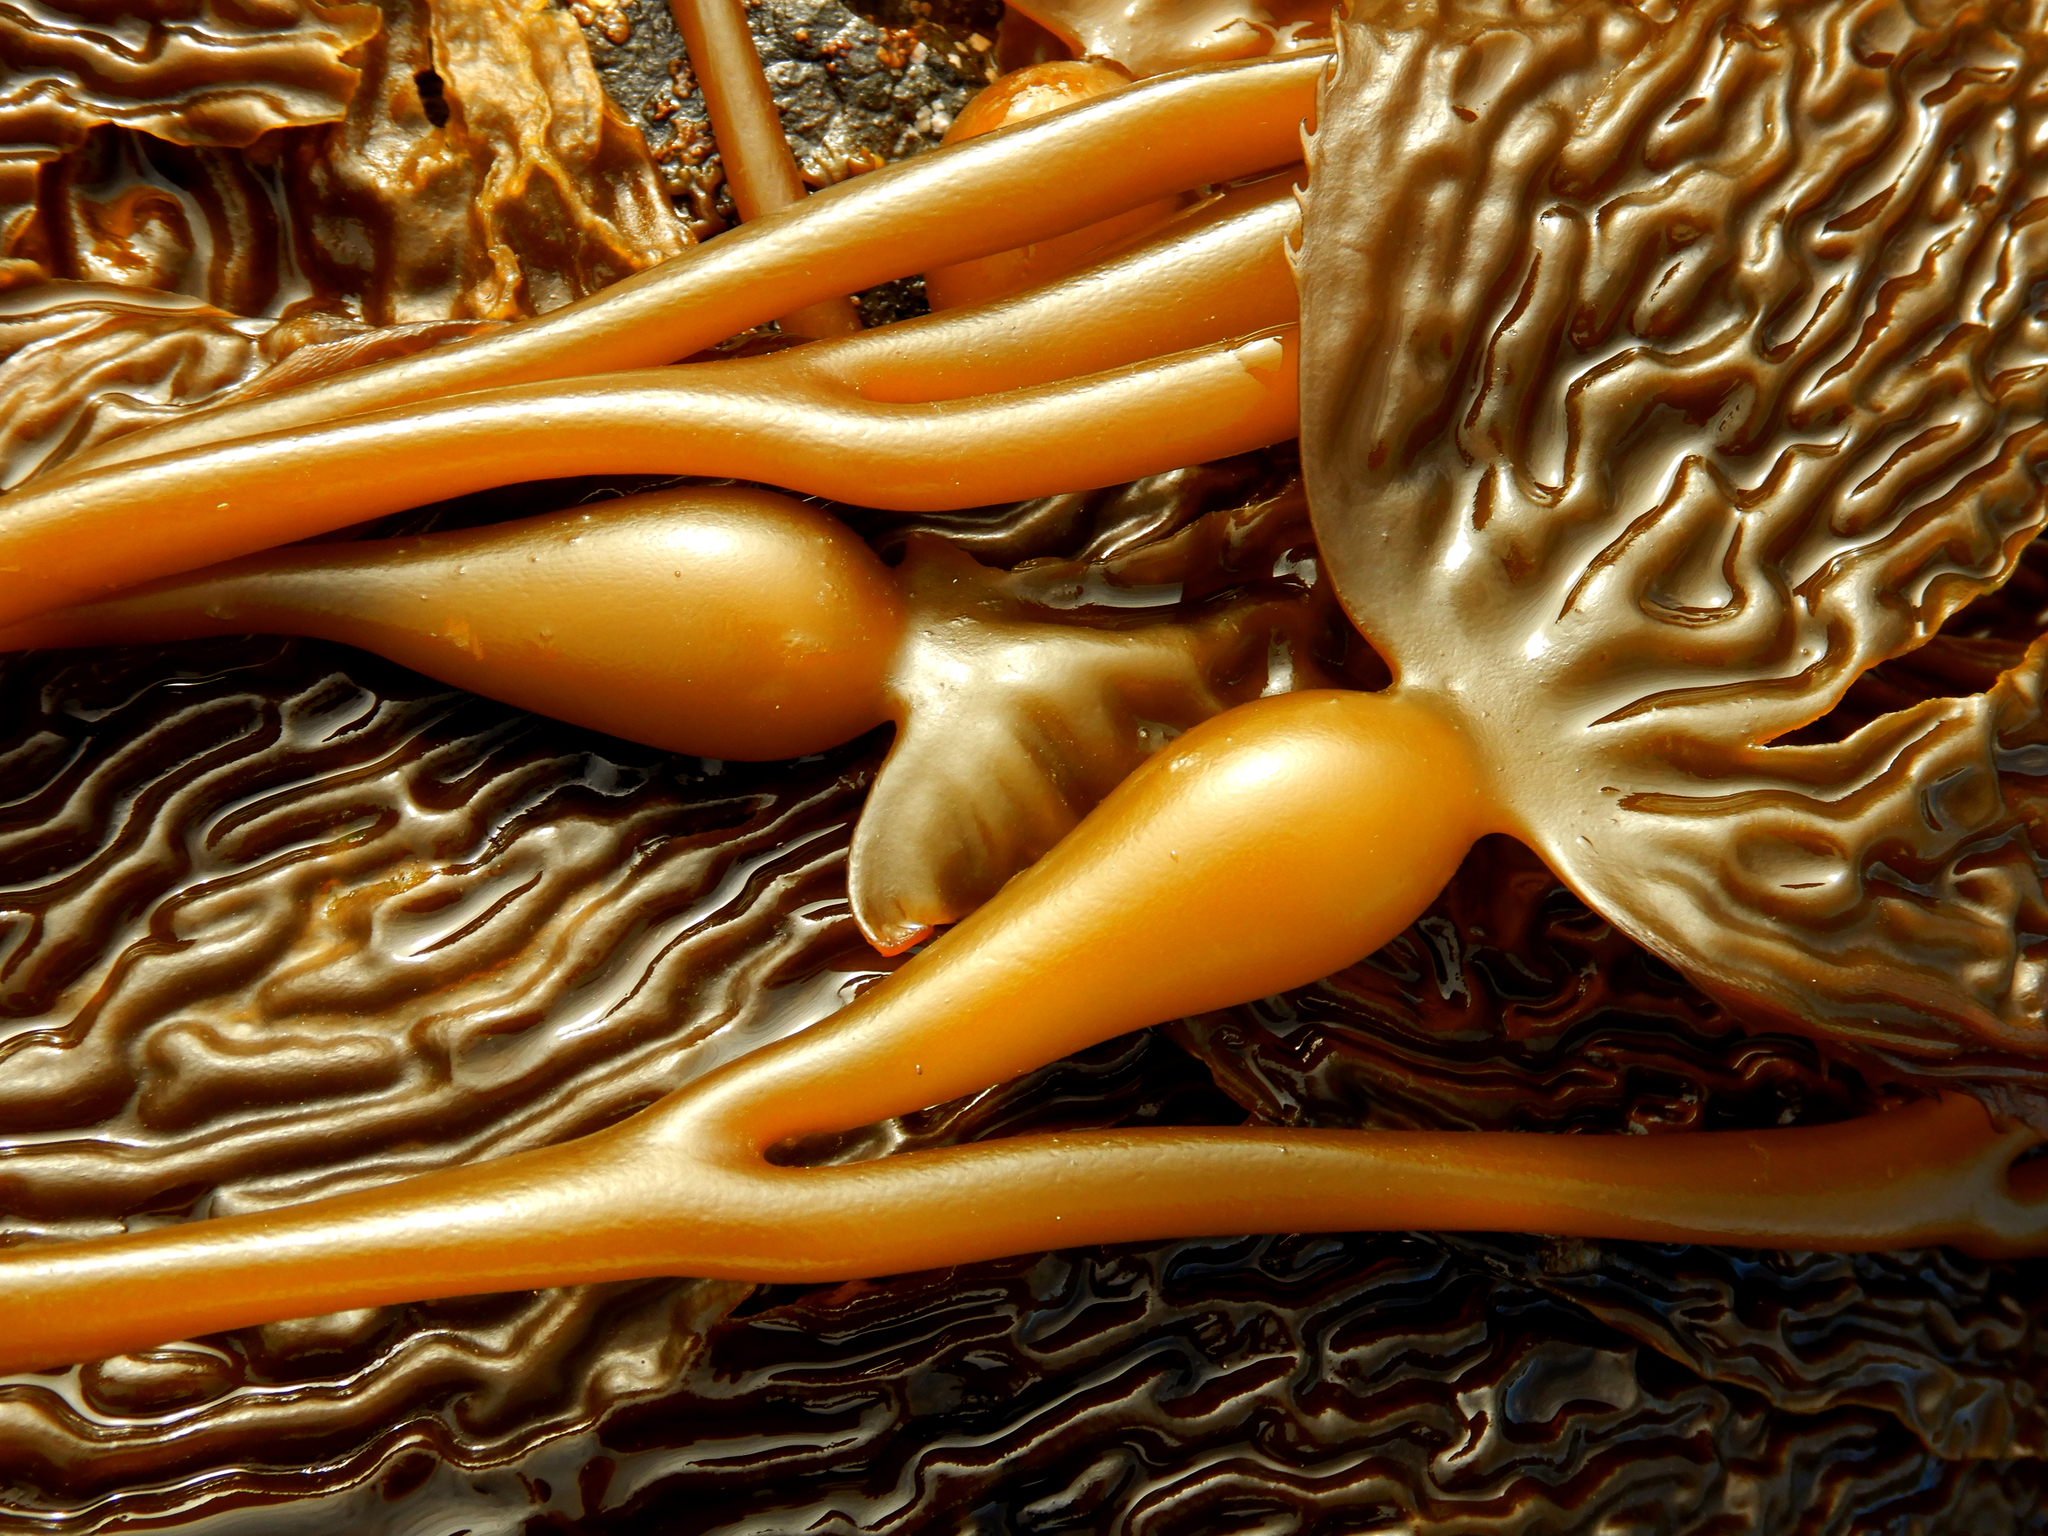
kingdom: Chromista
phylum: Ochrophyta
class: Phaeophyceae
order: Laminariales
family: Laminariaceae
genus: Macrocystis
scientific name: Macrocystis pyrifera
